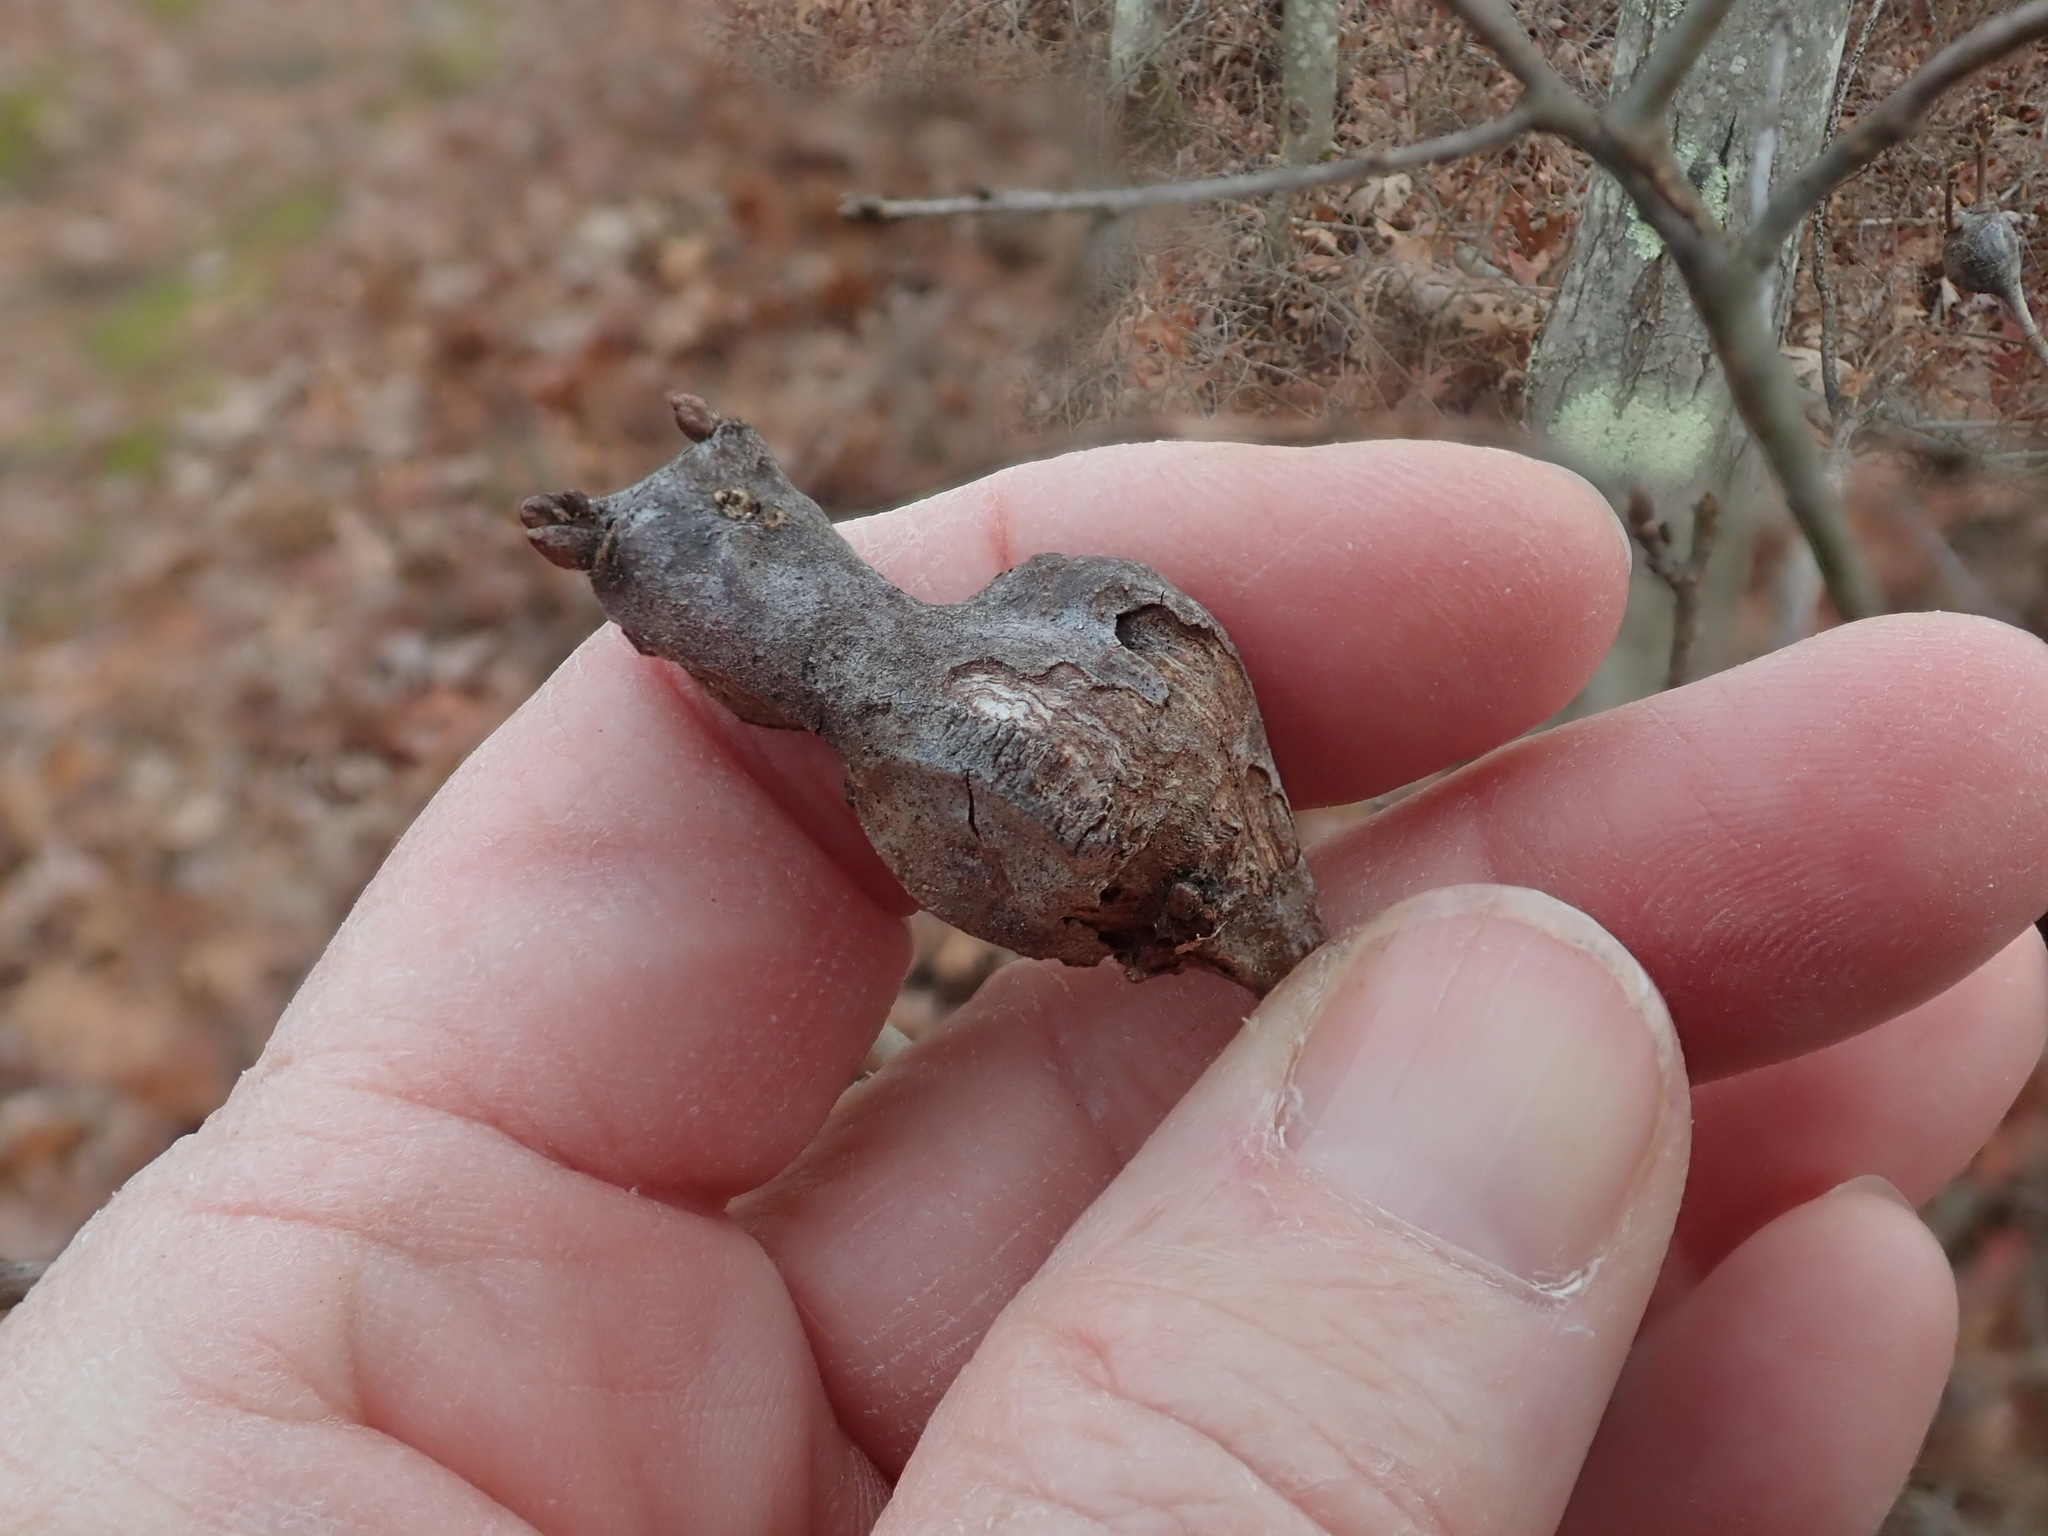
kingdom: Animalia
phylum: Arthropoda
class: Insecta
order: Hymenoptera
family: Cynipidae
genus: Zapatella
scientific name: Zapatella quercusphellos
